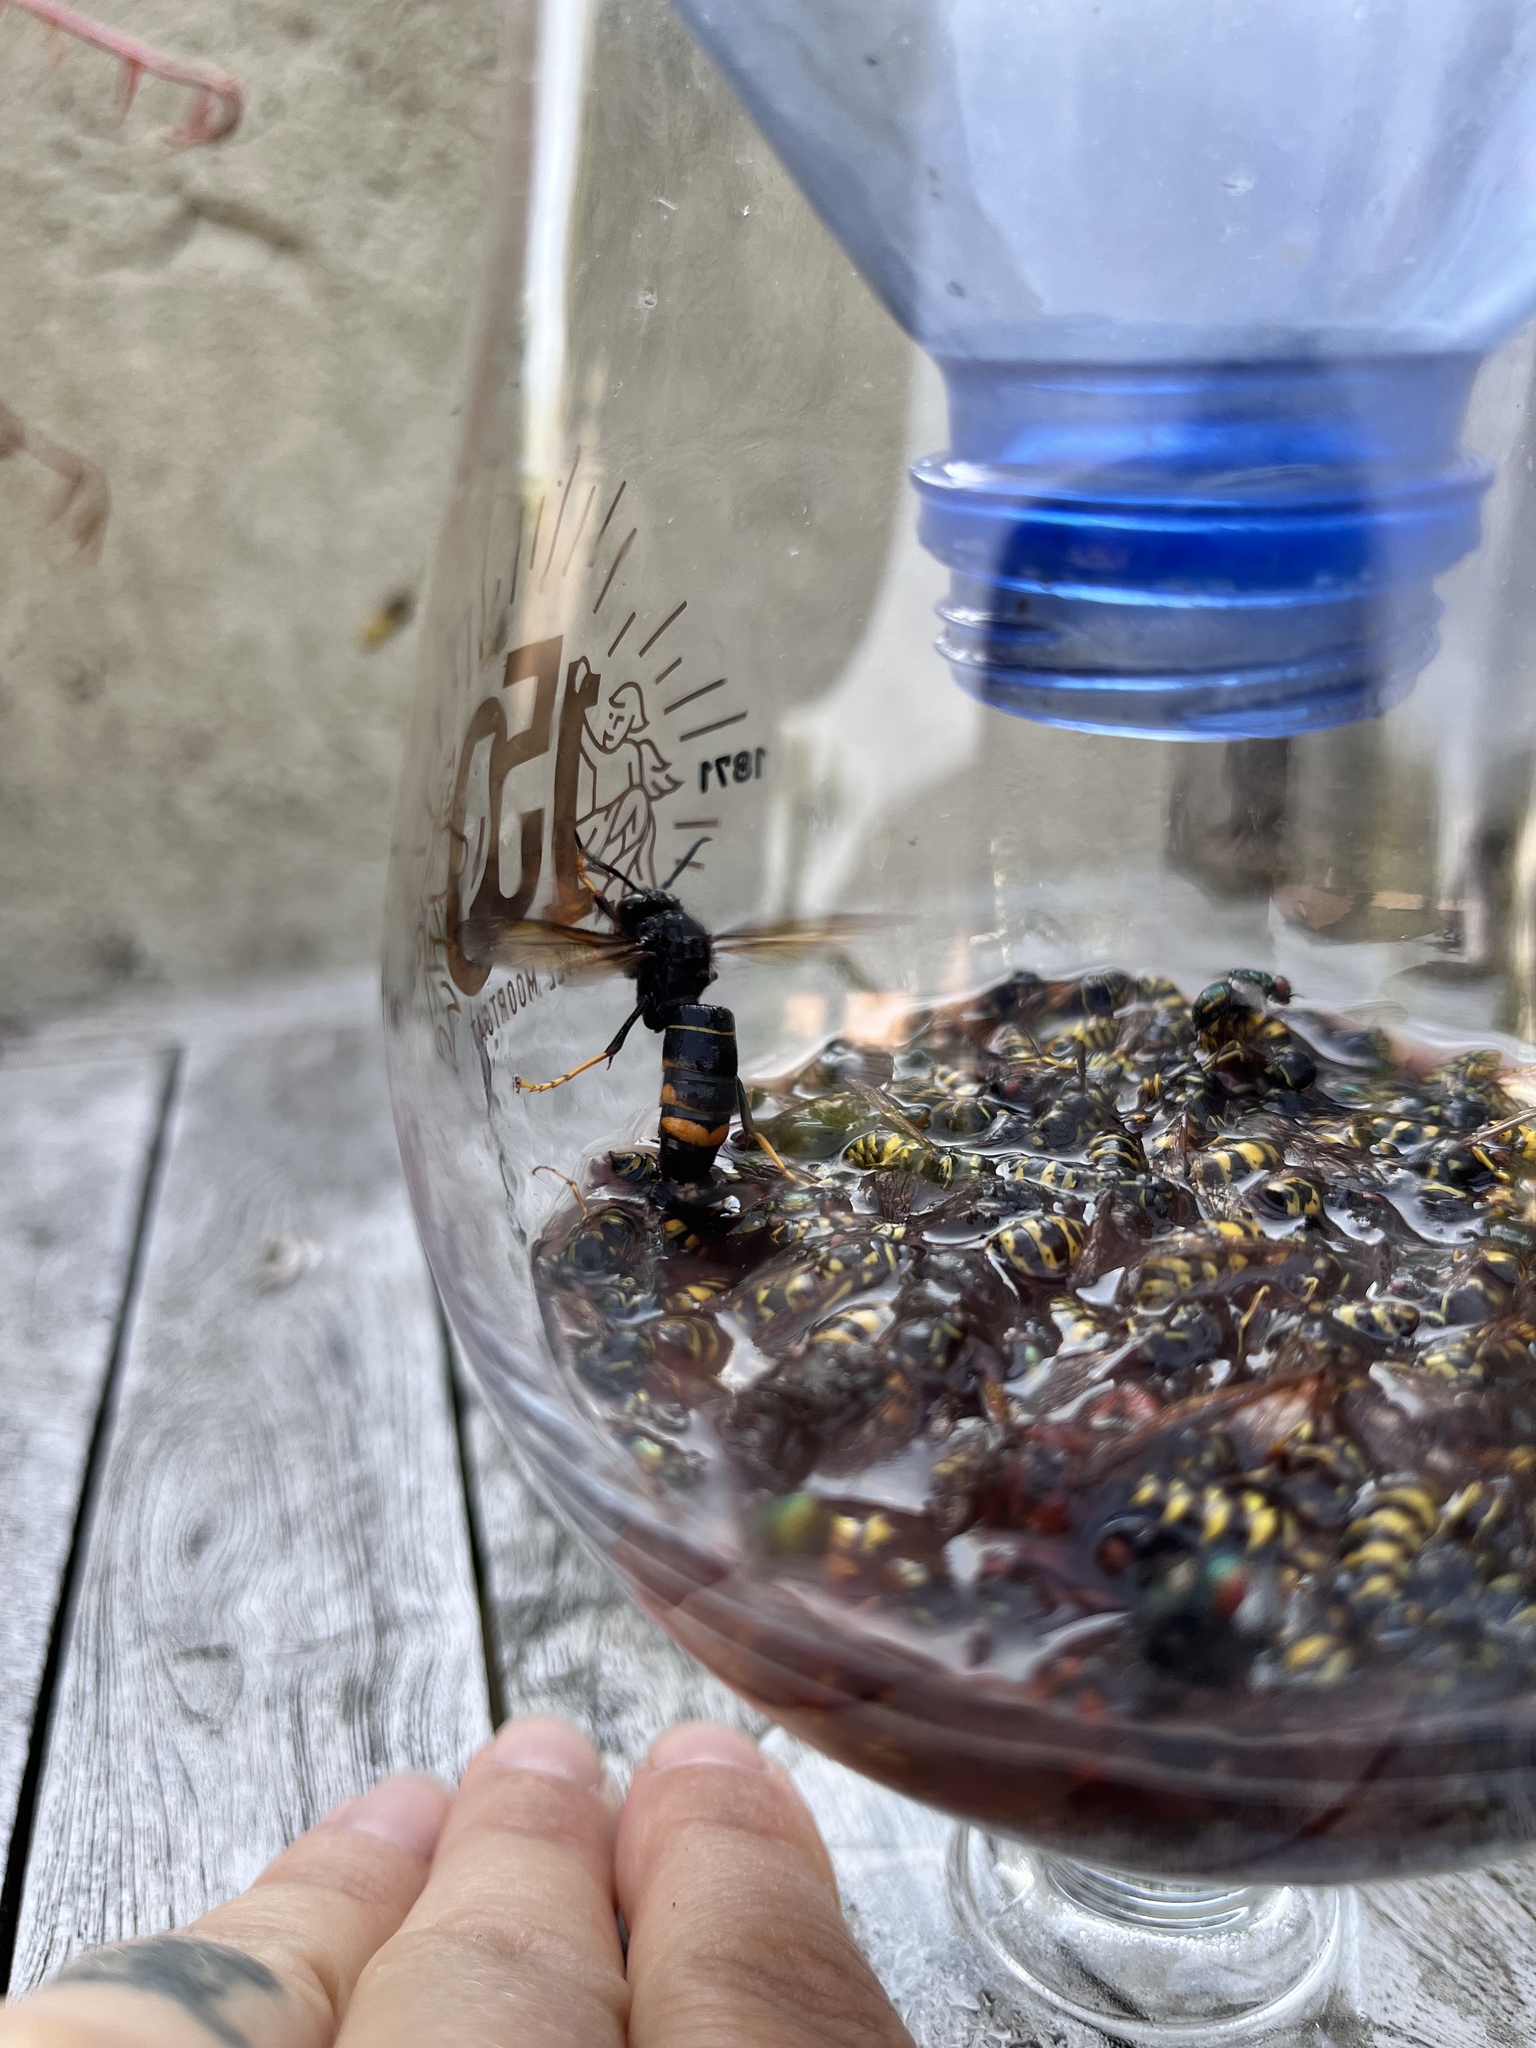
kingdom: Animalia
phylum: Arthropoda
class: Insecta
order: Hymenoptera
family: Vespidae
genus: Vespa
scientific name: Vespa velutina
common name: Asian hornet
